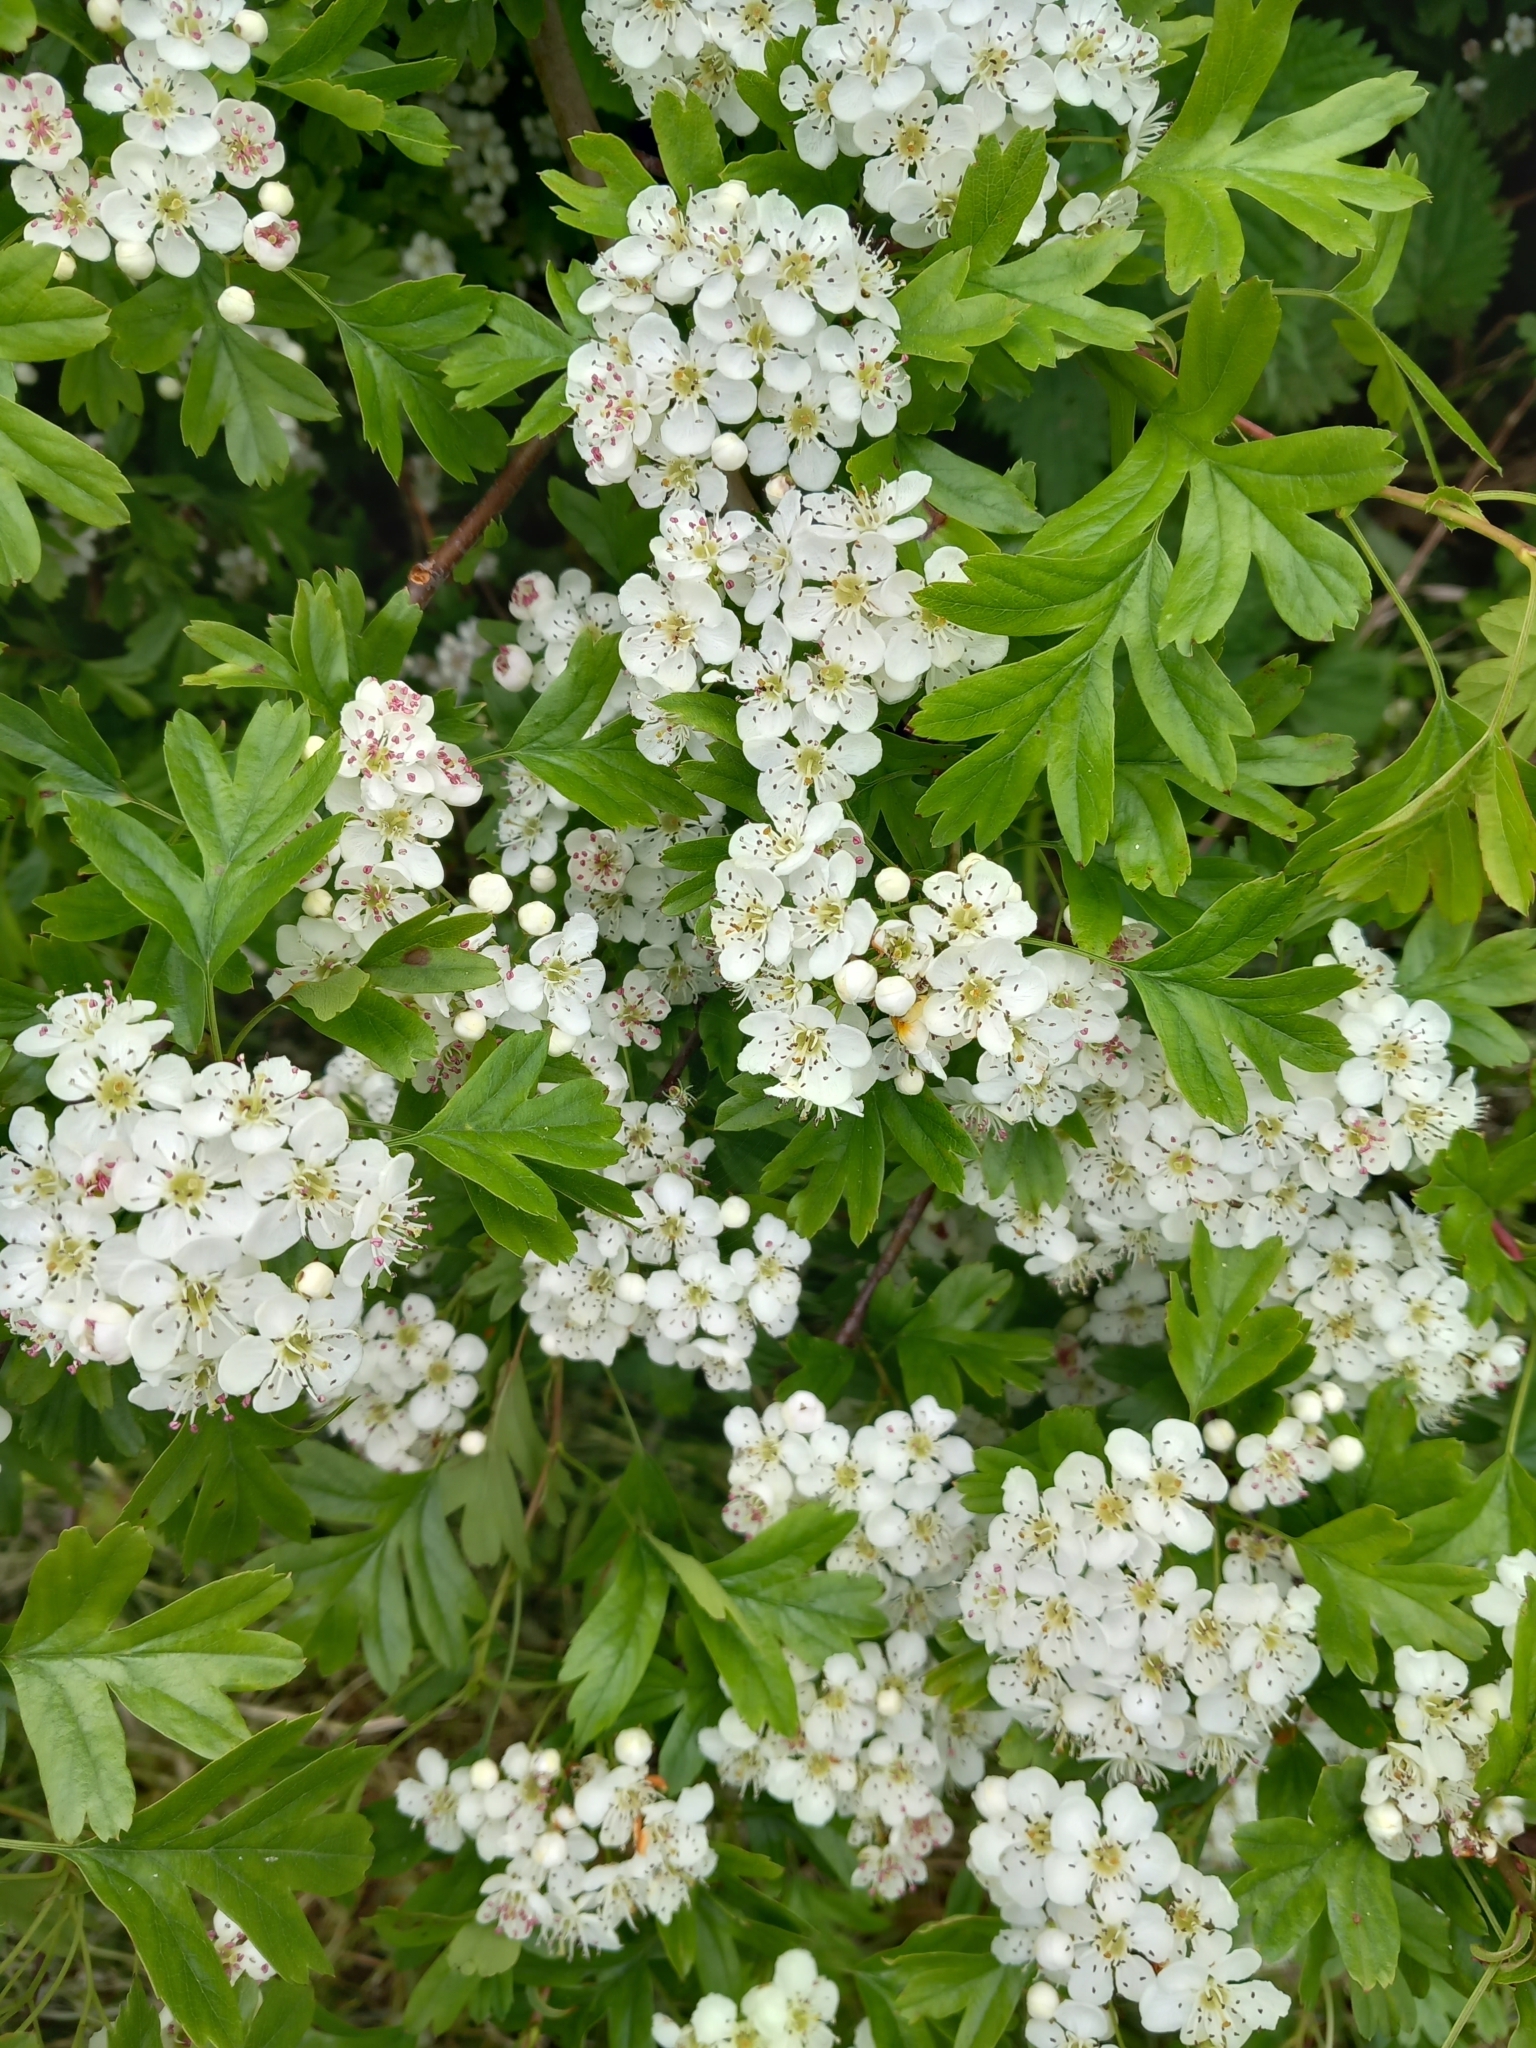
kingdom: Plantae
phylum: Tracheophyta
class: Magnoliopsida
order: Rosales
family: Rosaceae
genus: Crataegus
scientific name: Crataegus monogyna
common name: Hawthorn
